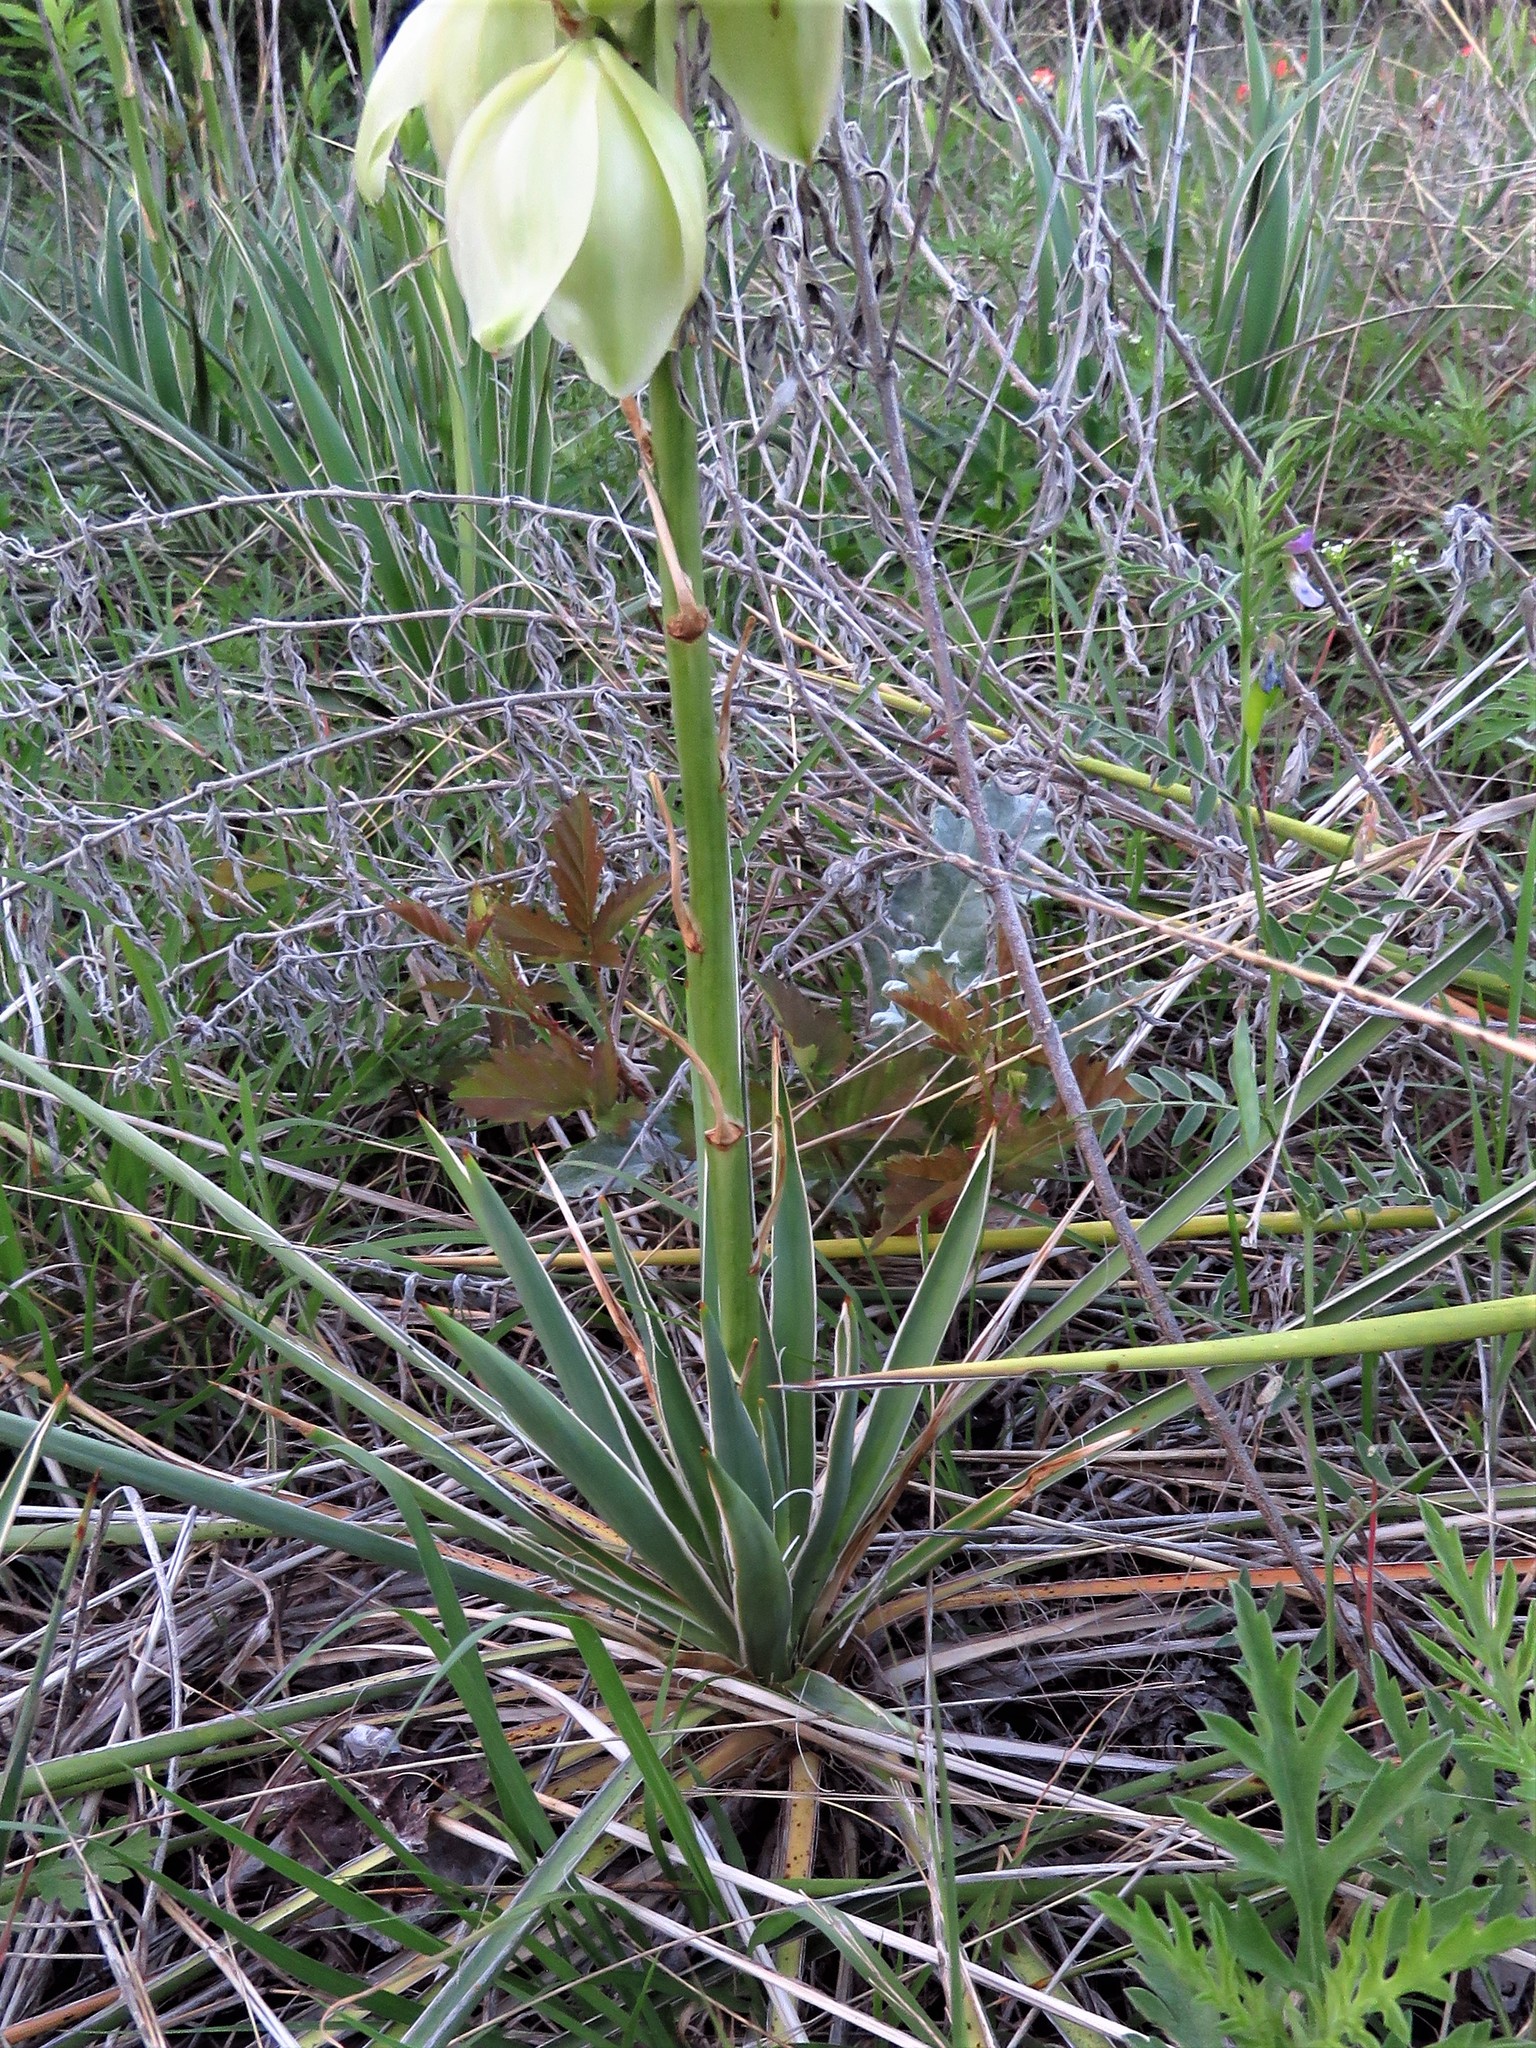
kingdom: Plantae
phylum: Tracheophyta
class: Liliopsida
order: Asparagales
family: Asparagaceae
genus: Yucca
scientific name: Yucca arkansana
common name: Arkansas yucca
